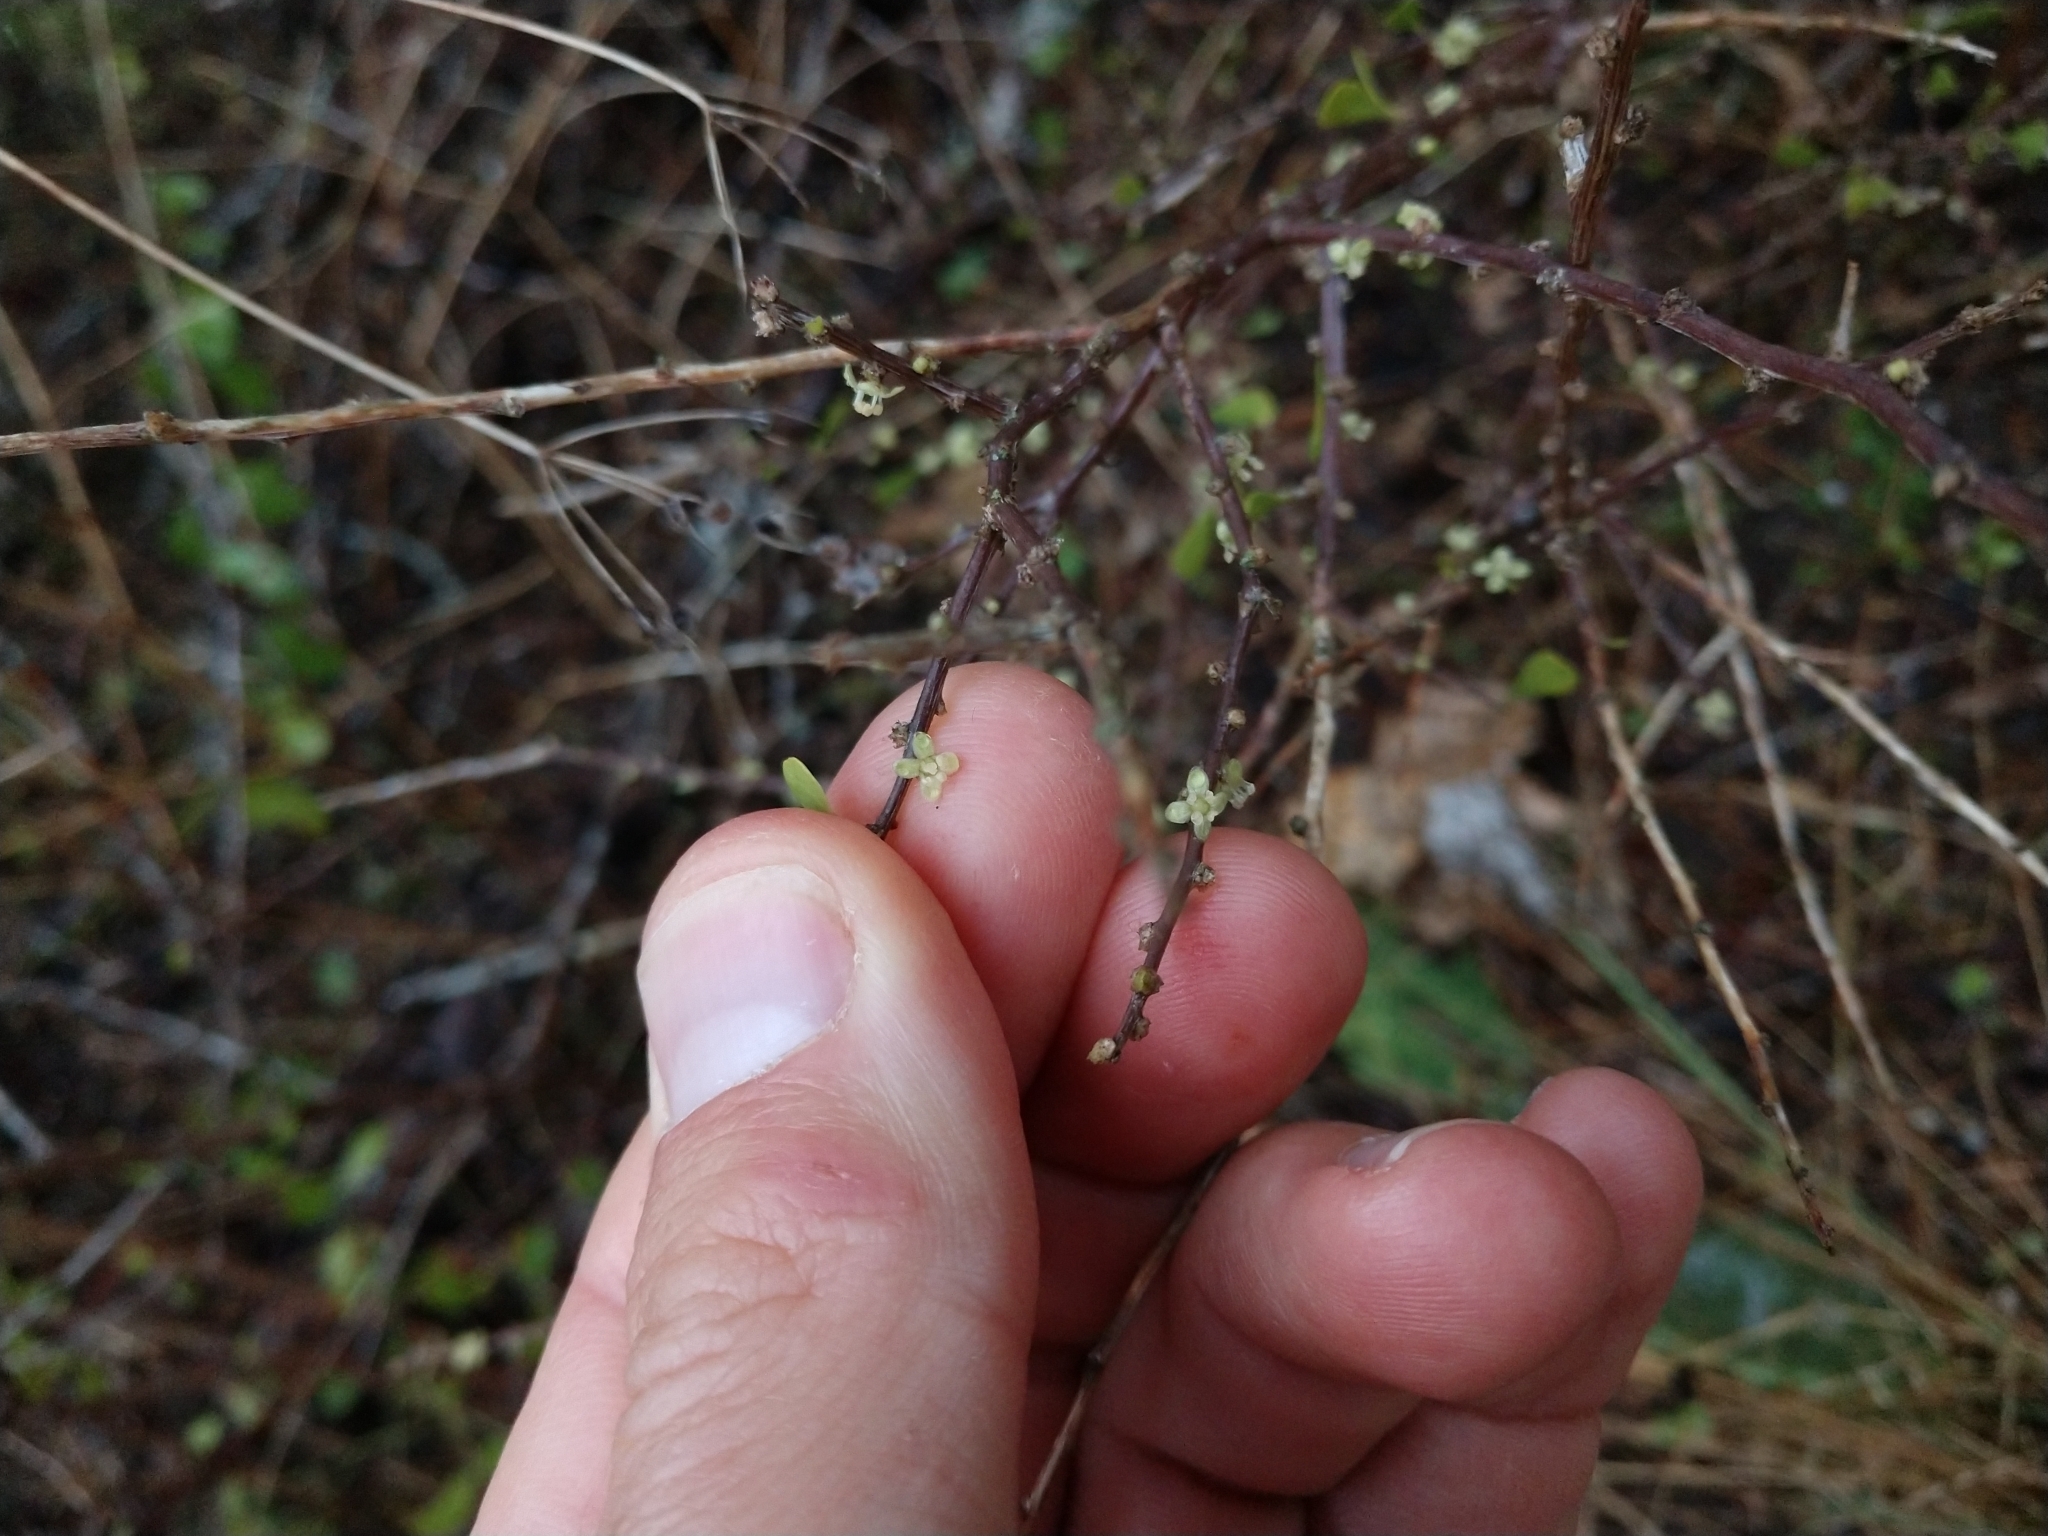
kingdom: Plantae
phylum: Tracheophyta
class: Magnoliopsida
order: Celastrales
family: Celastraceae
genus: Schaefferia
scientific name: Schaefferia cuneifolia
